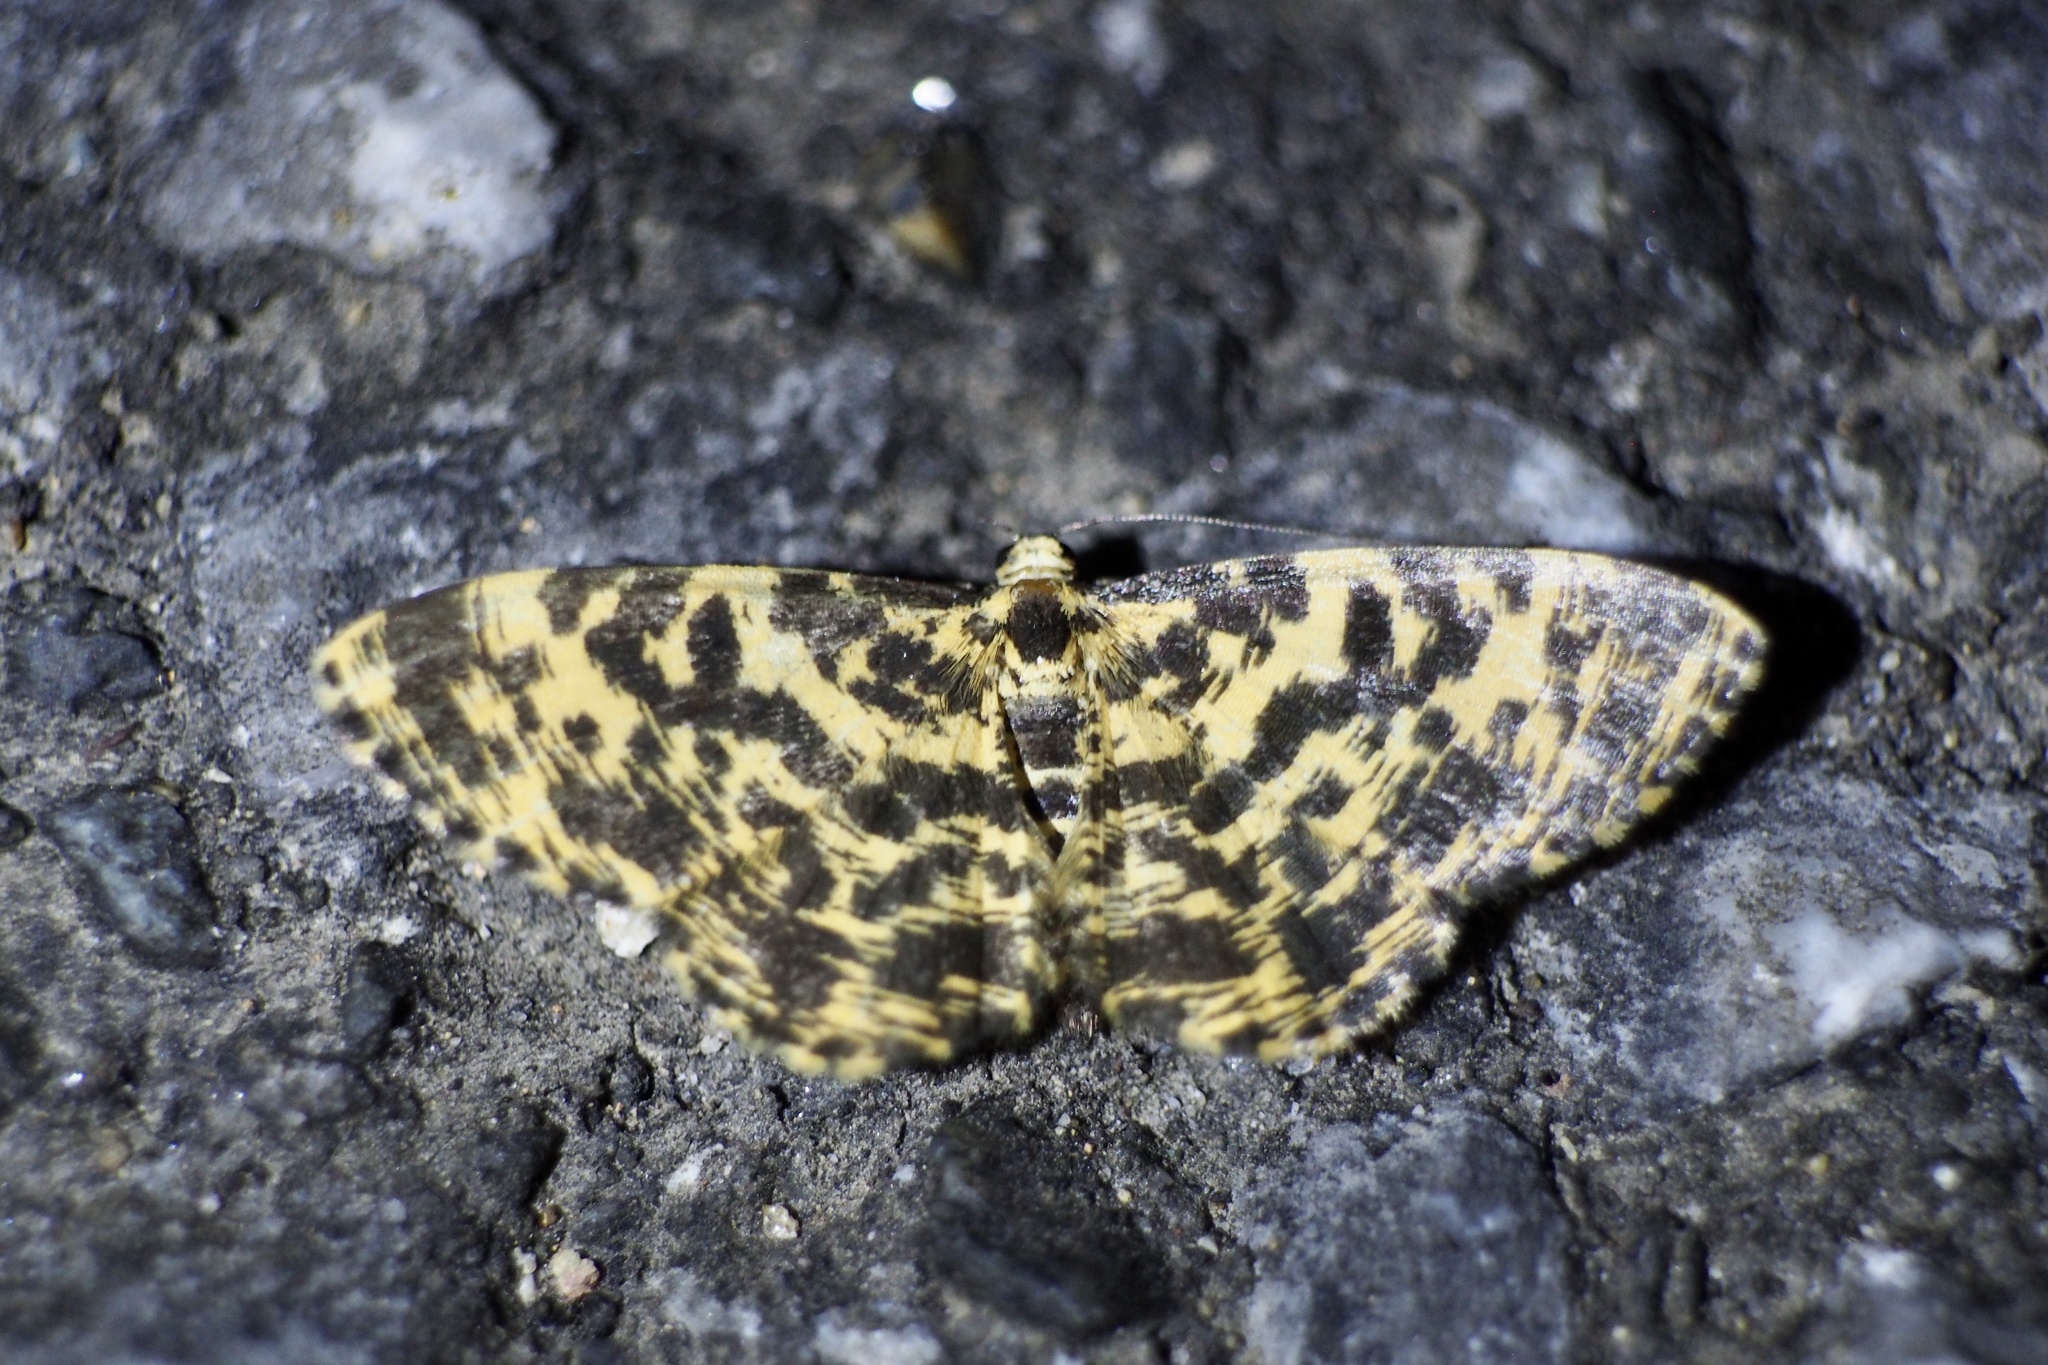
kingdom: Animalia
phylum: Arthropoda
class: Insecta
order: Lepidoptera
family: Geometridae
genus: Monocerotesa
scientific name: Monocerotesa lutearia
